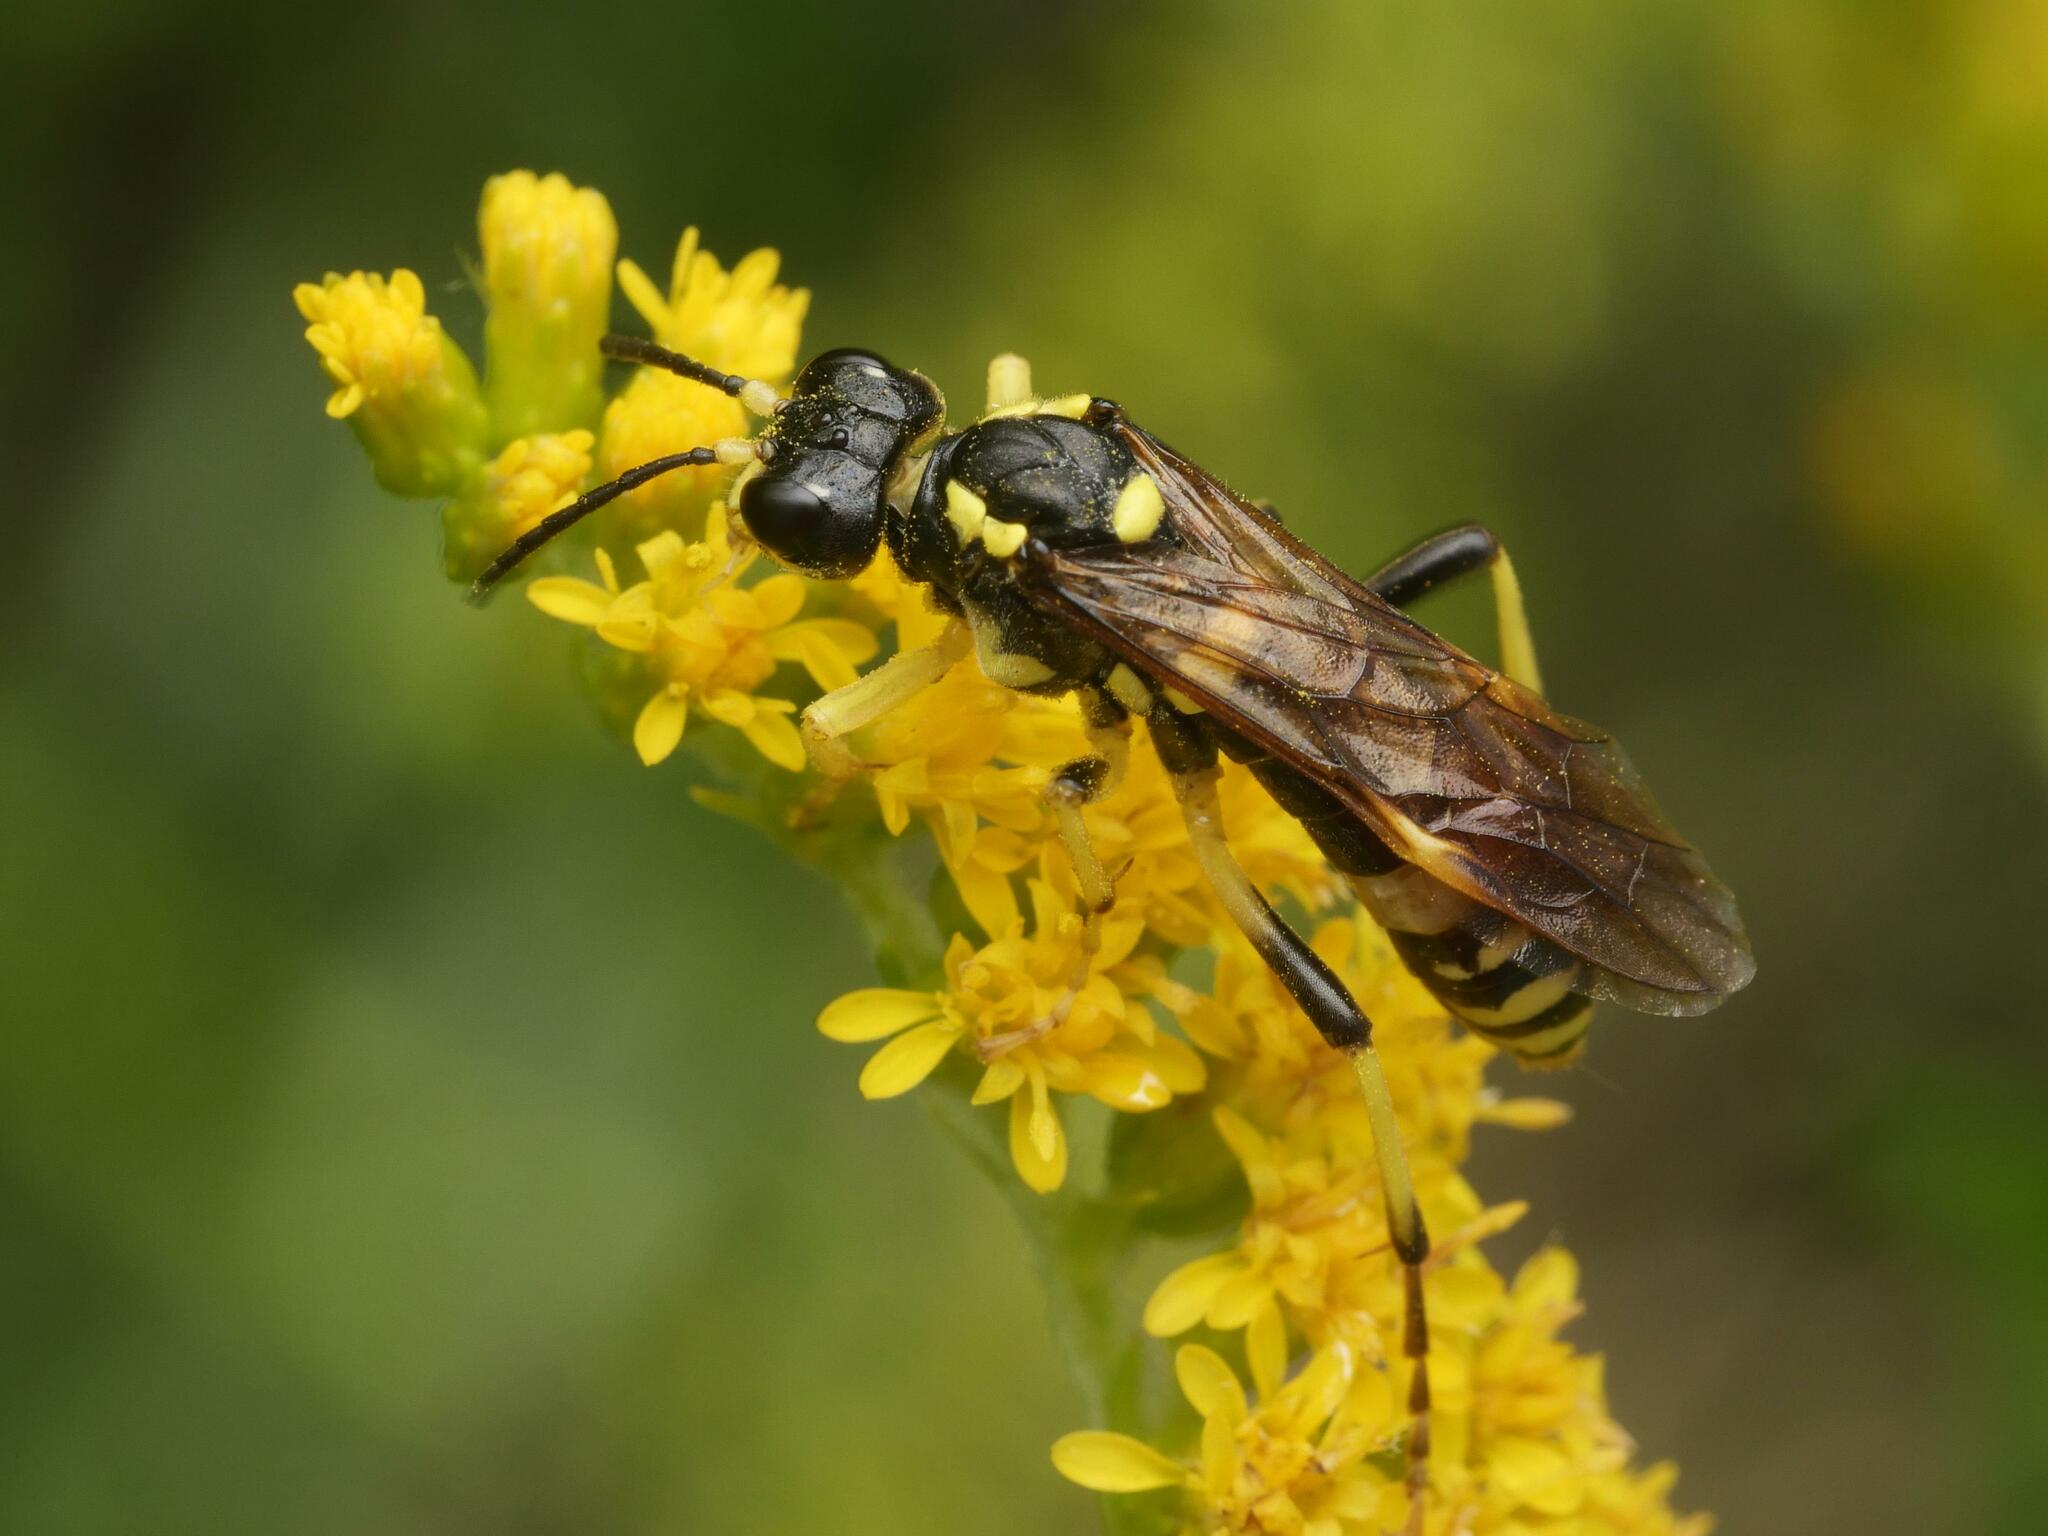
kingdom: Animalia
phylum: Arthropoda
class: Insecta
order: Hymenoptera
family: Tenthredinidae
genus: Tenthredo
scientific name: Tenthredo
